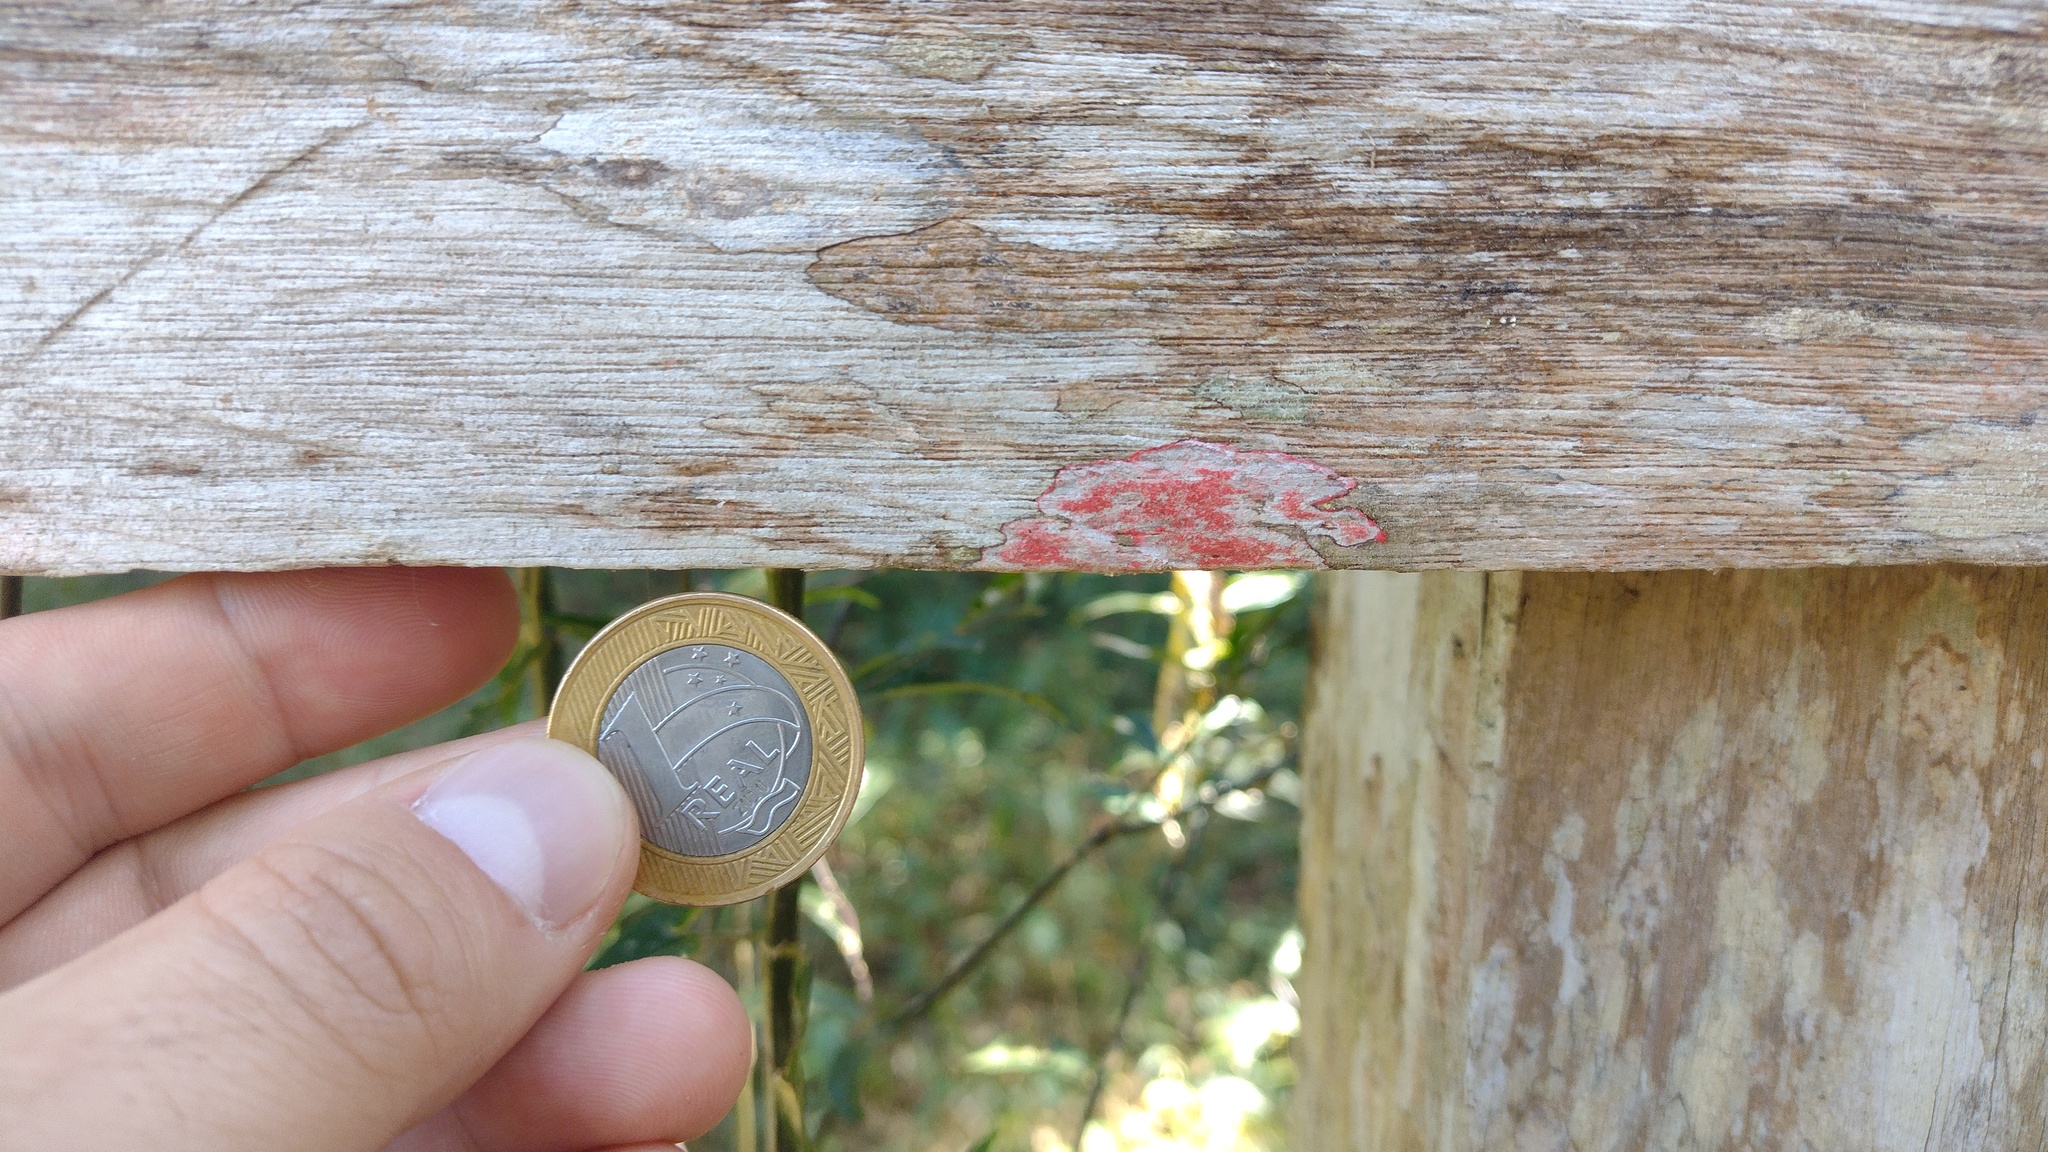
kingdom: Fungi
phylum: Ascomycota
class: Arthoniomycetes
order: Arthoniales
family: Arthoniaceae
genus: Herpothallon
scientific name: Herpothallon rubrocinctum
